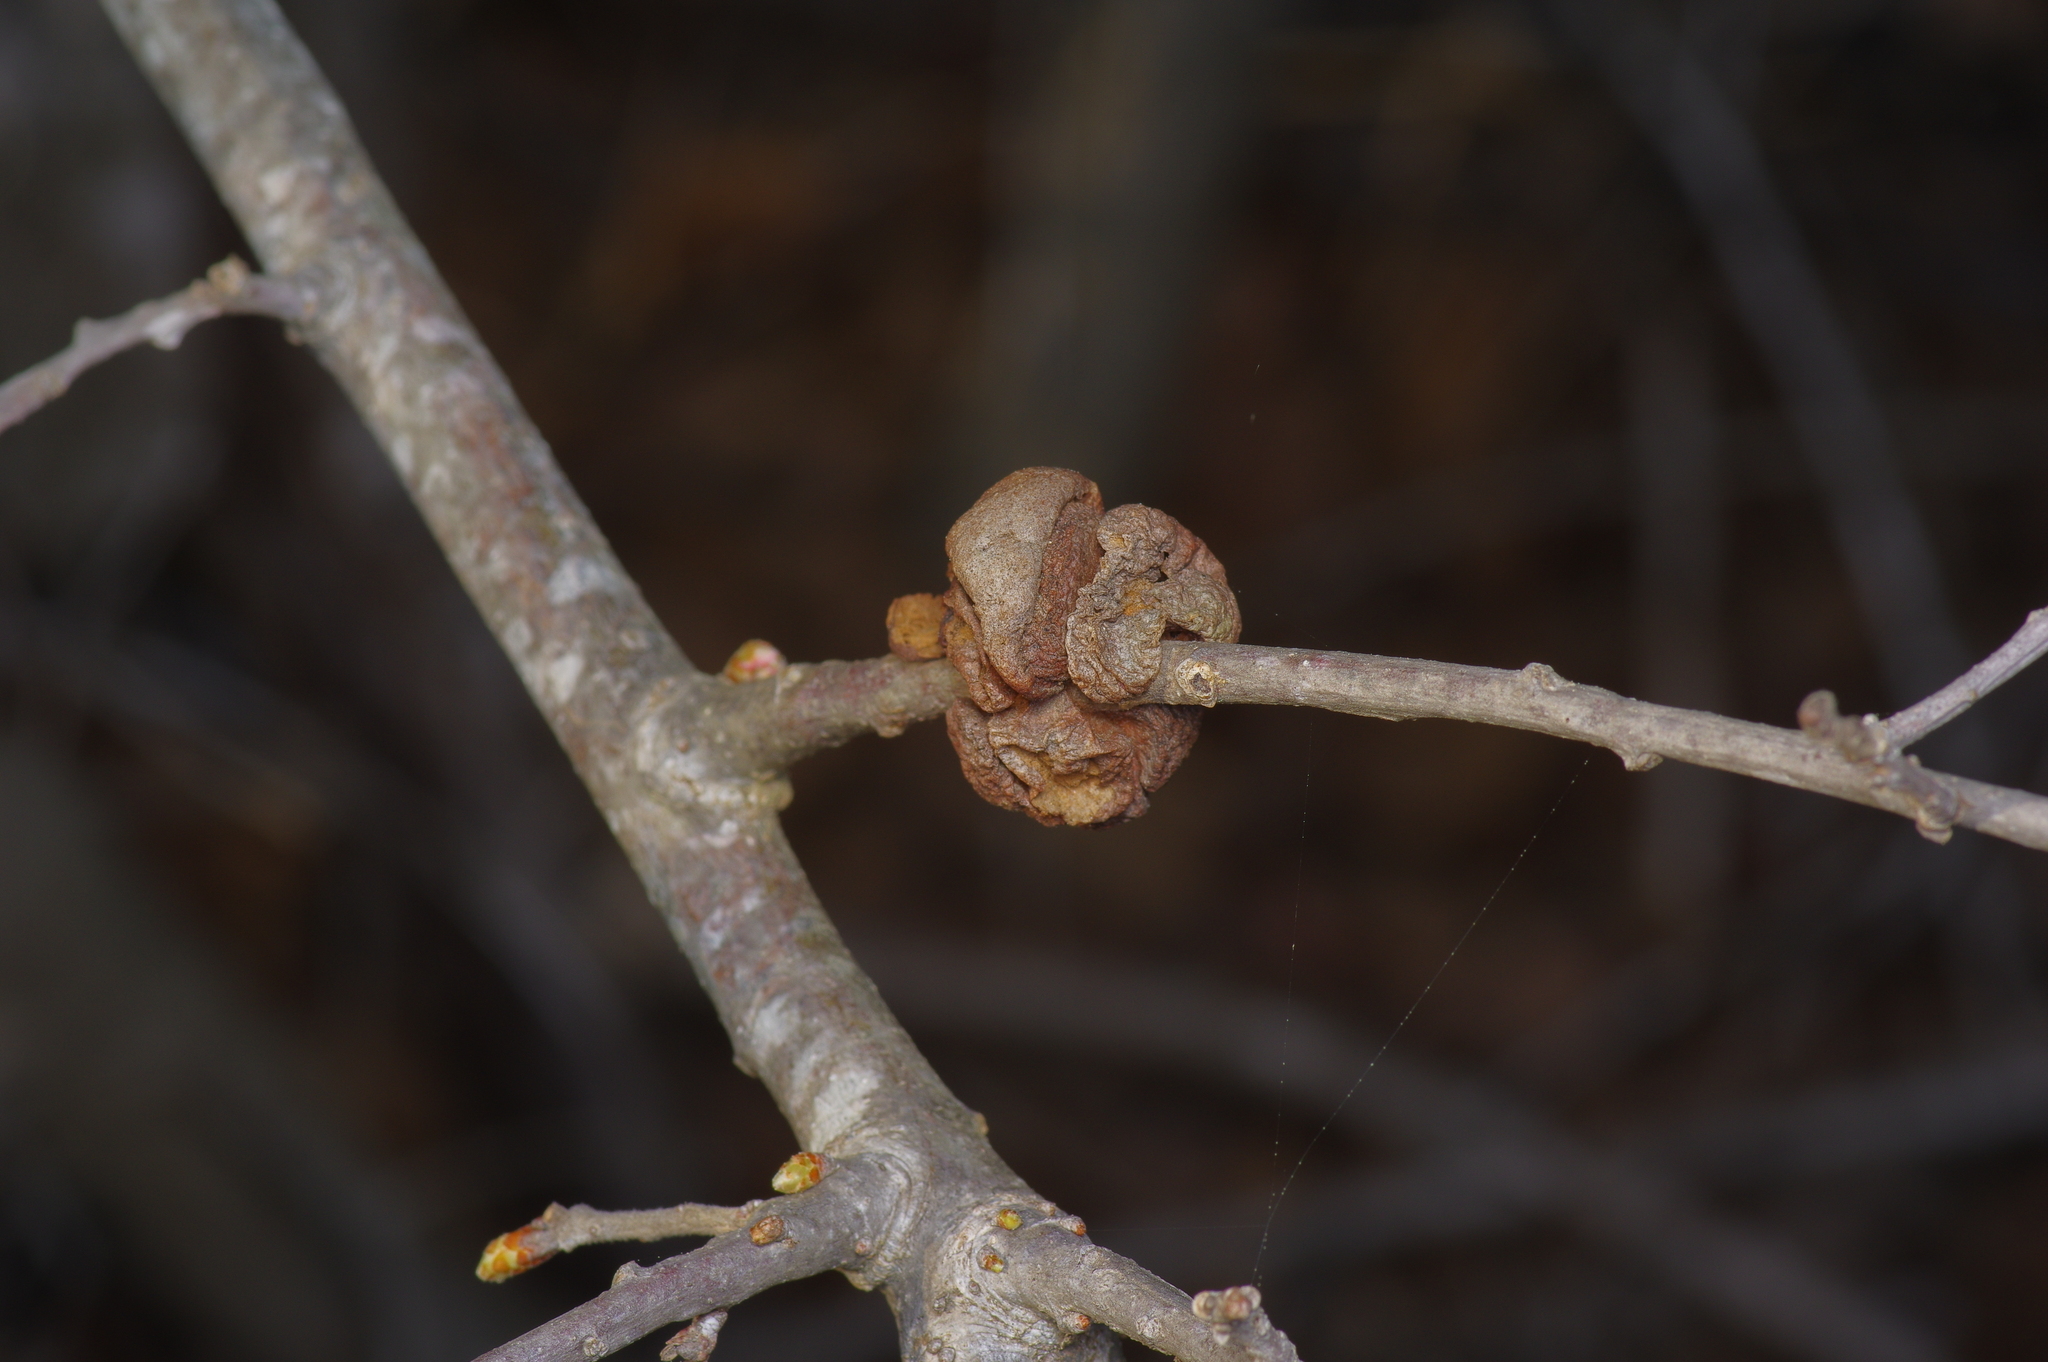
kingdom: Animalia
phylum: Arthropoda
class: Insecta
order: Hymenoptera
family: Cynipidae
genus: Disholcaspis
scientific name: Disholcaspis
